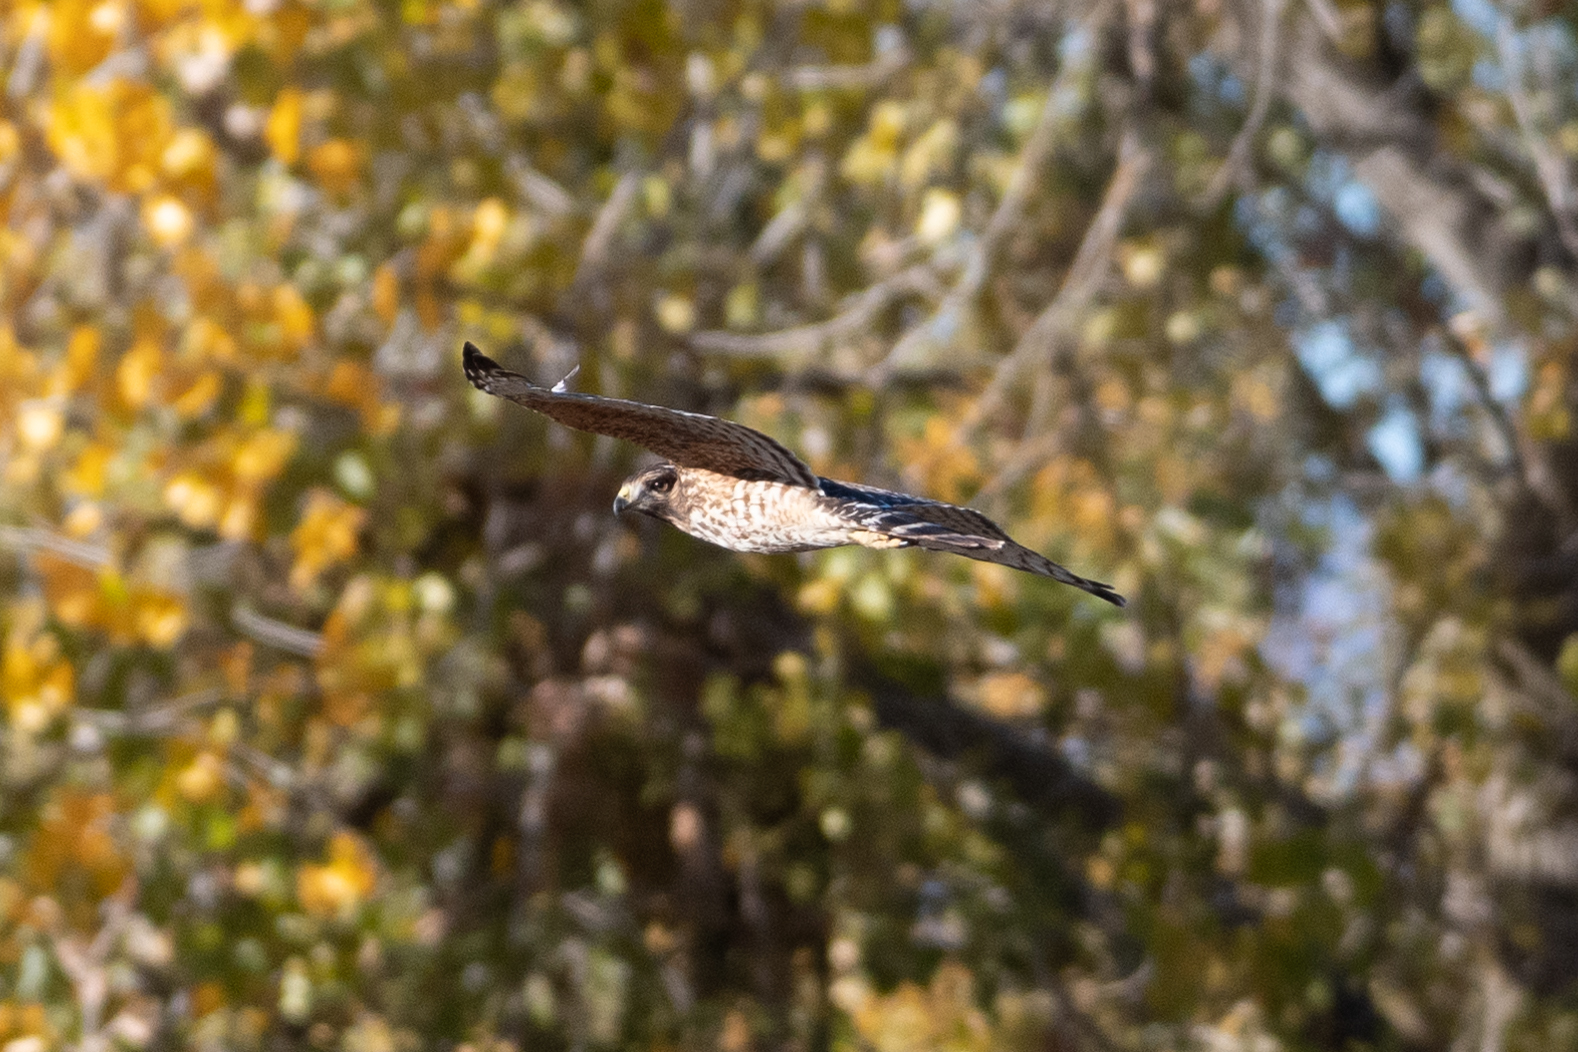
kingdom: Animalia
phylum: Chordata
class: Aves
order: Accipitriformes
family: Accipitridae
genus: Buteo
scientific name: Buteo lineatus
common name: Red-shouldered hawk
